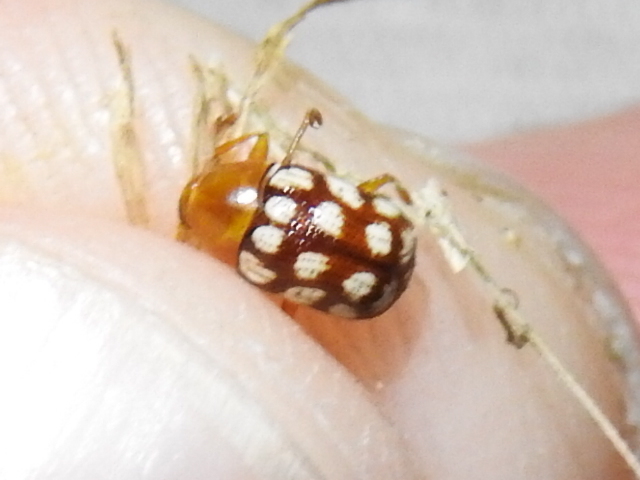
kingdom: Animalia
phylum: Arthropoda
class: Insecta
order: Coleoptera
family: Chrysomelidae
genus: Cryptocephalus
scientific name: Cryptocephalus guttulatus
